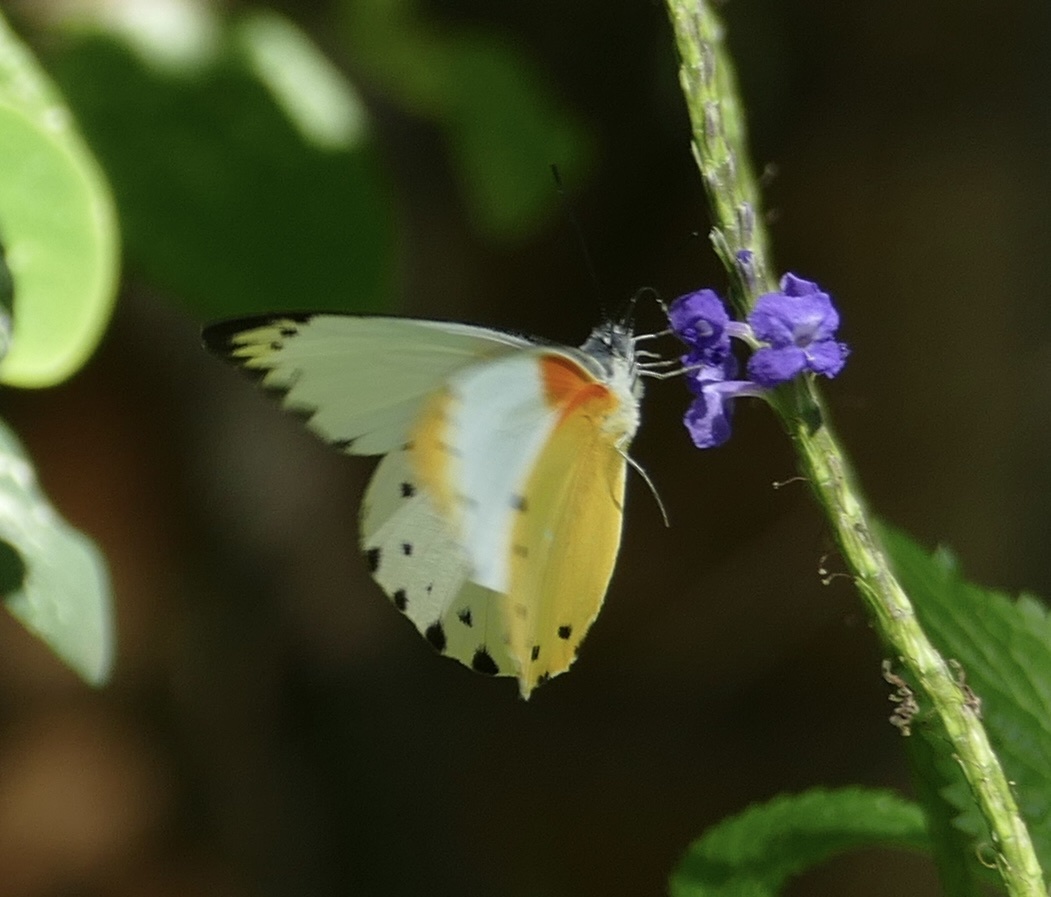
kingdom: Animalia
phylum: Arthropoda
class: Insecta
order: Lepidoptera
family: Pieridae
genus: Belenois
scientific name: Belenois thysa
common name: False dotted border
